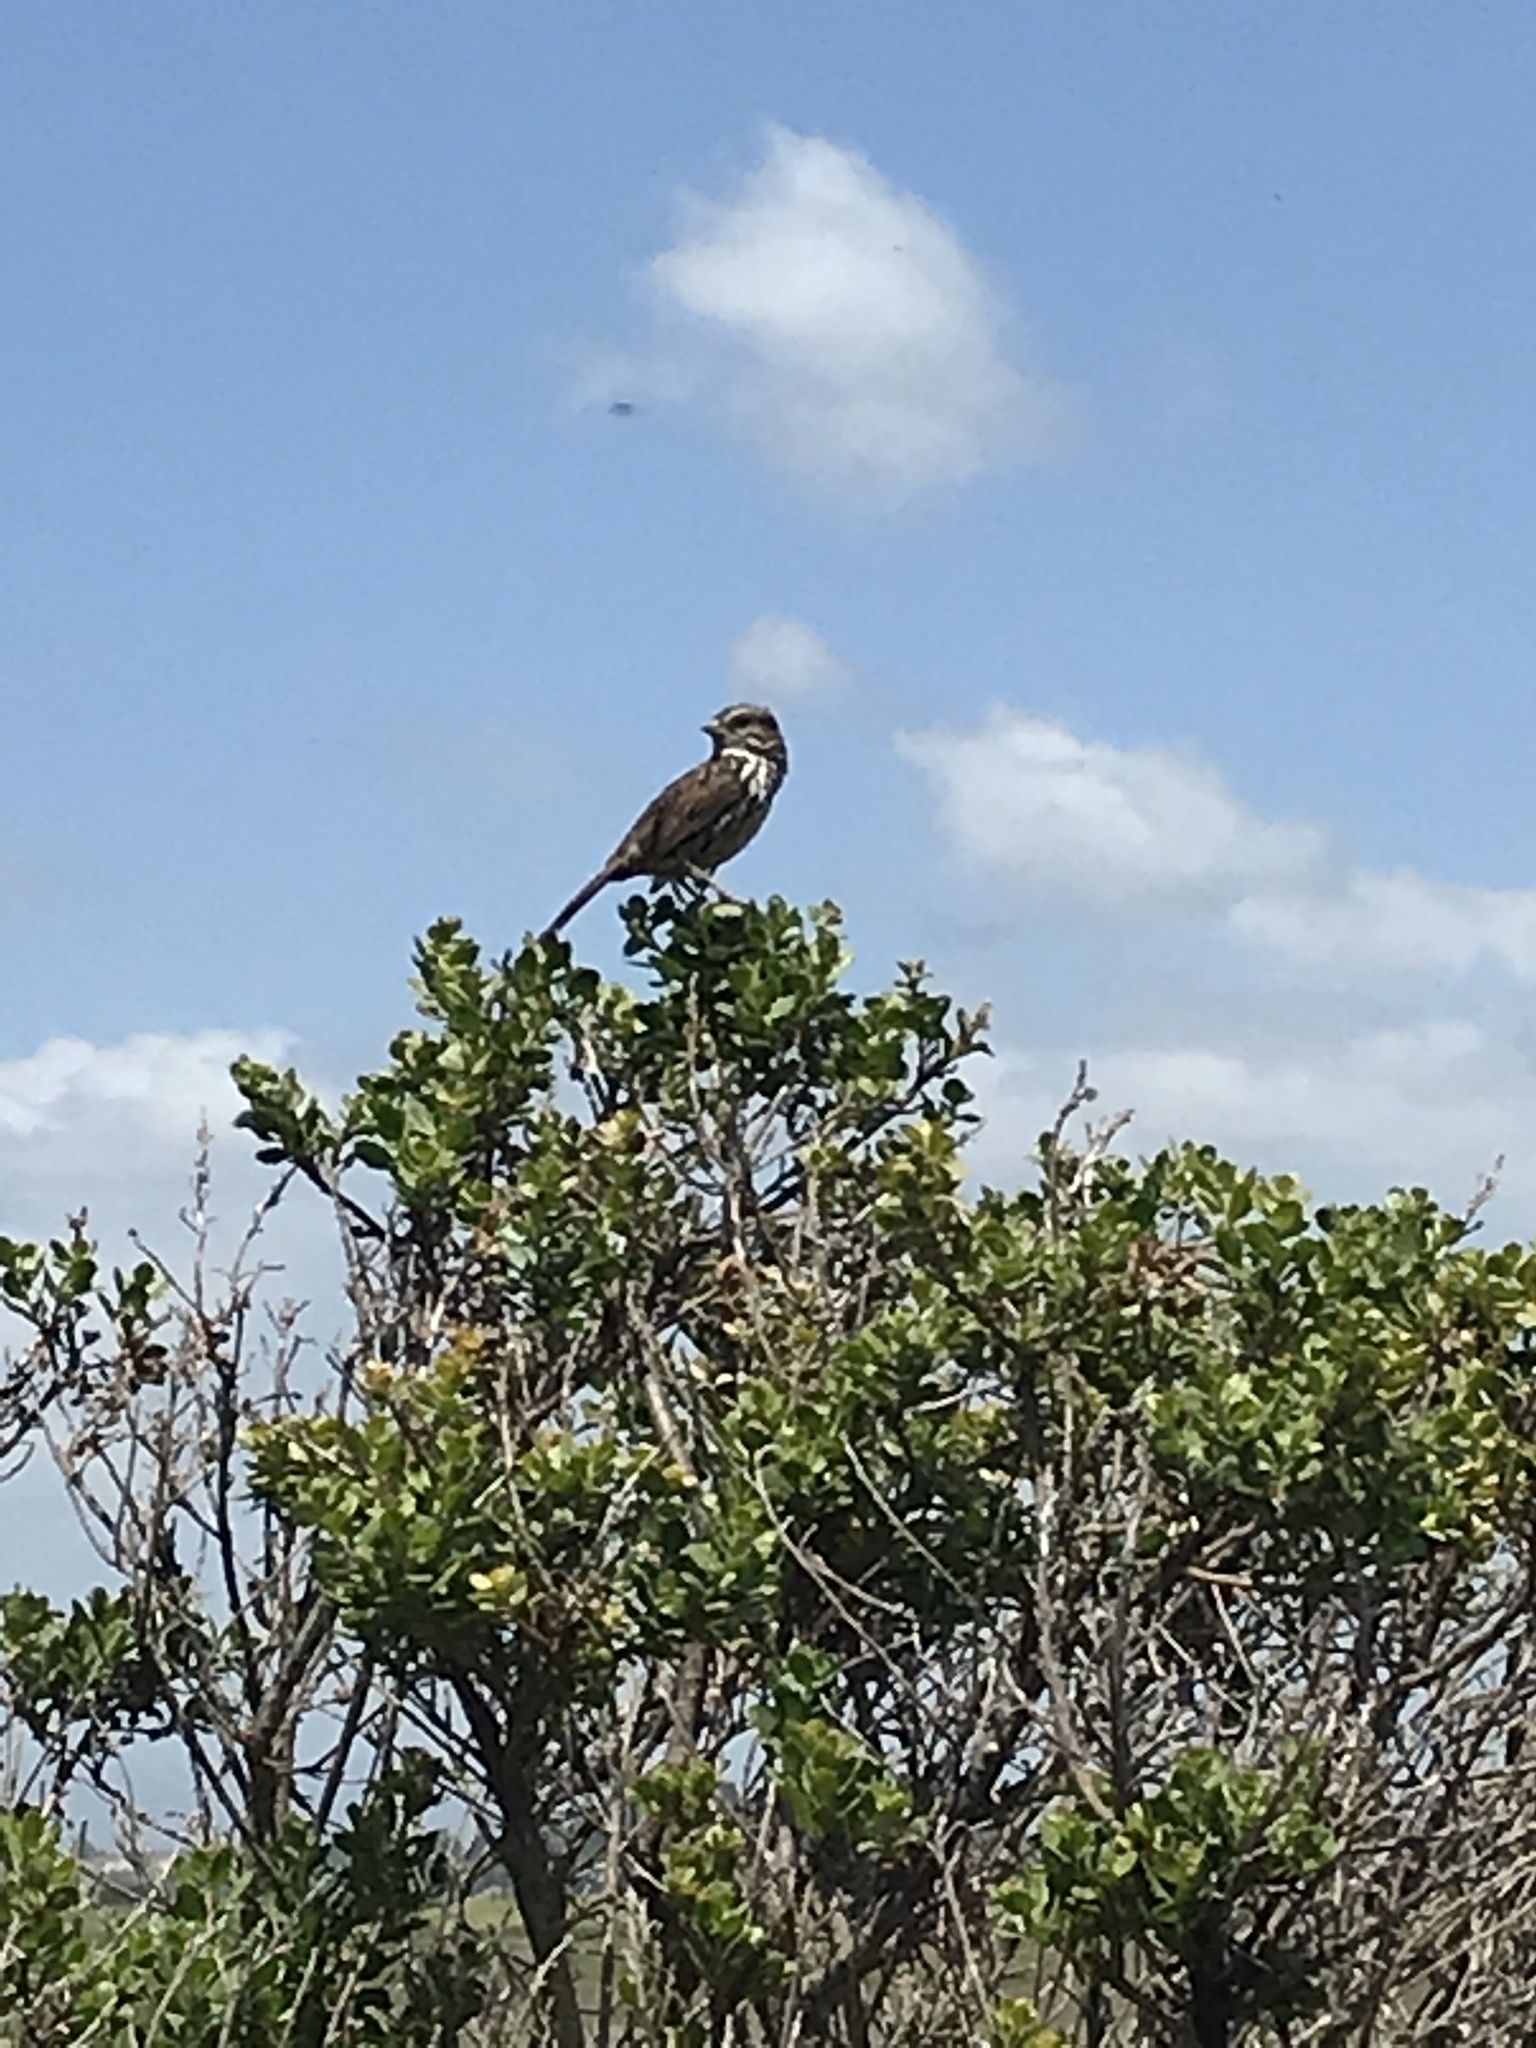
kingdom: Animalia
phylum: Chordata
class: Aves
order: Passeriformes
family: Passerellidae
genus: Melospiza
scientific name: Melospiza melodia
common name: Song sparrow
